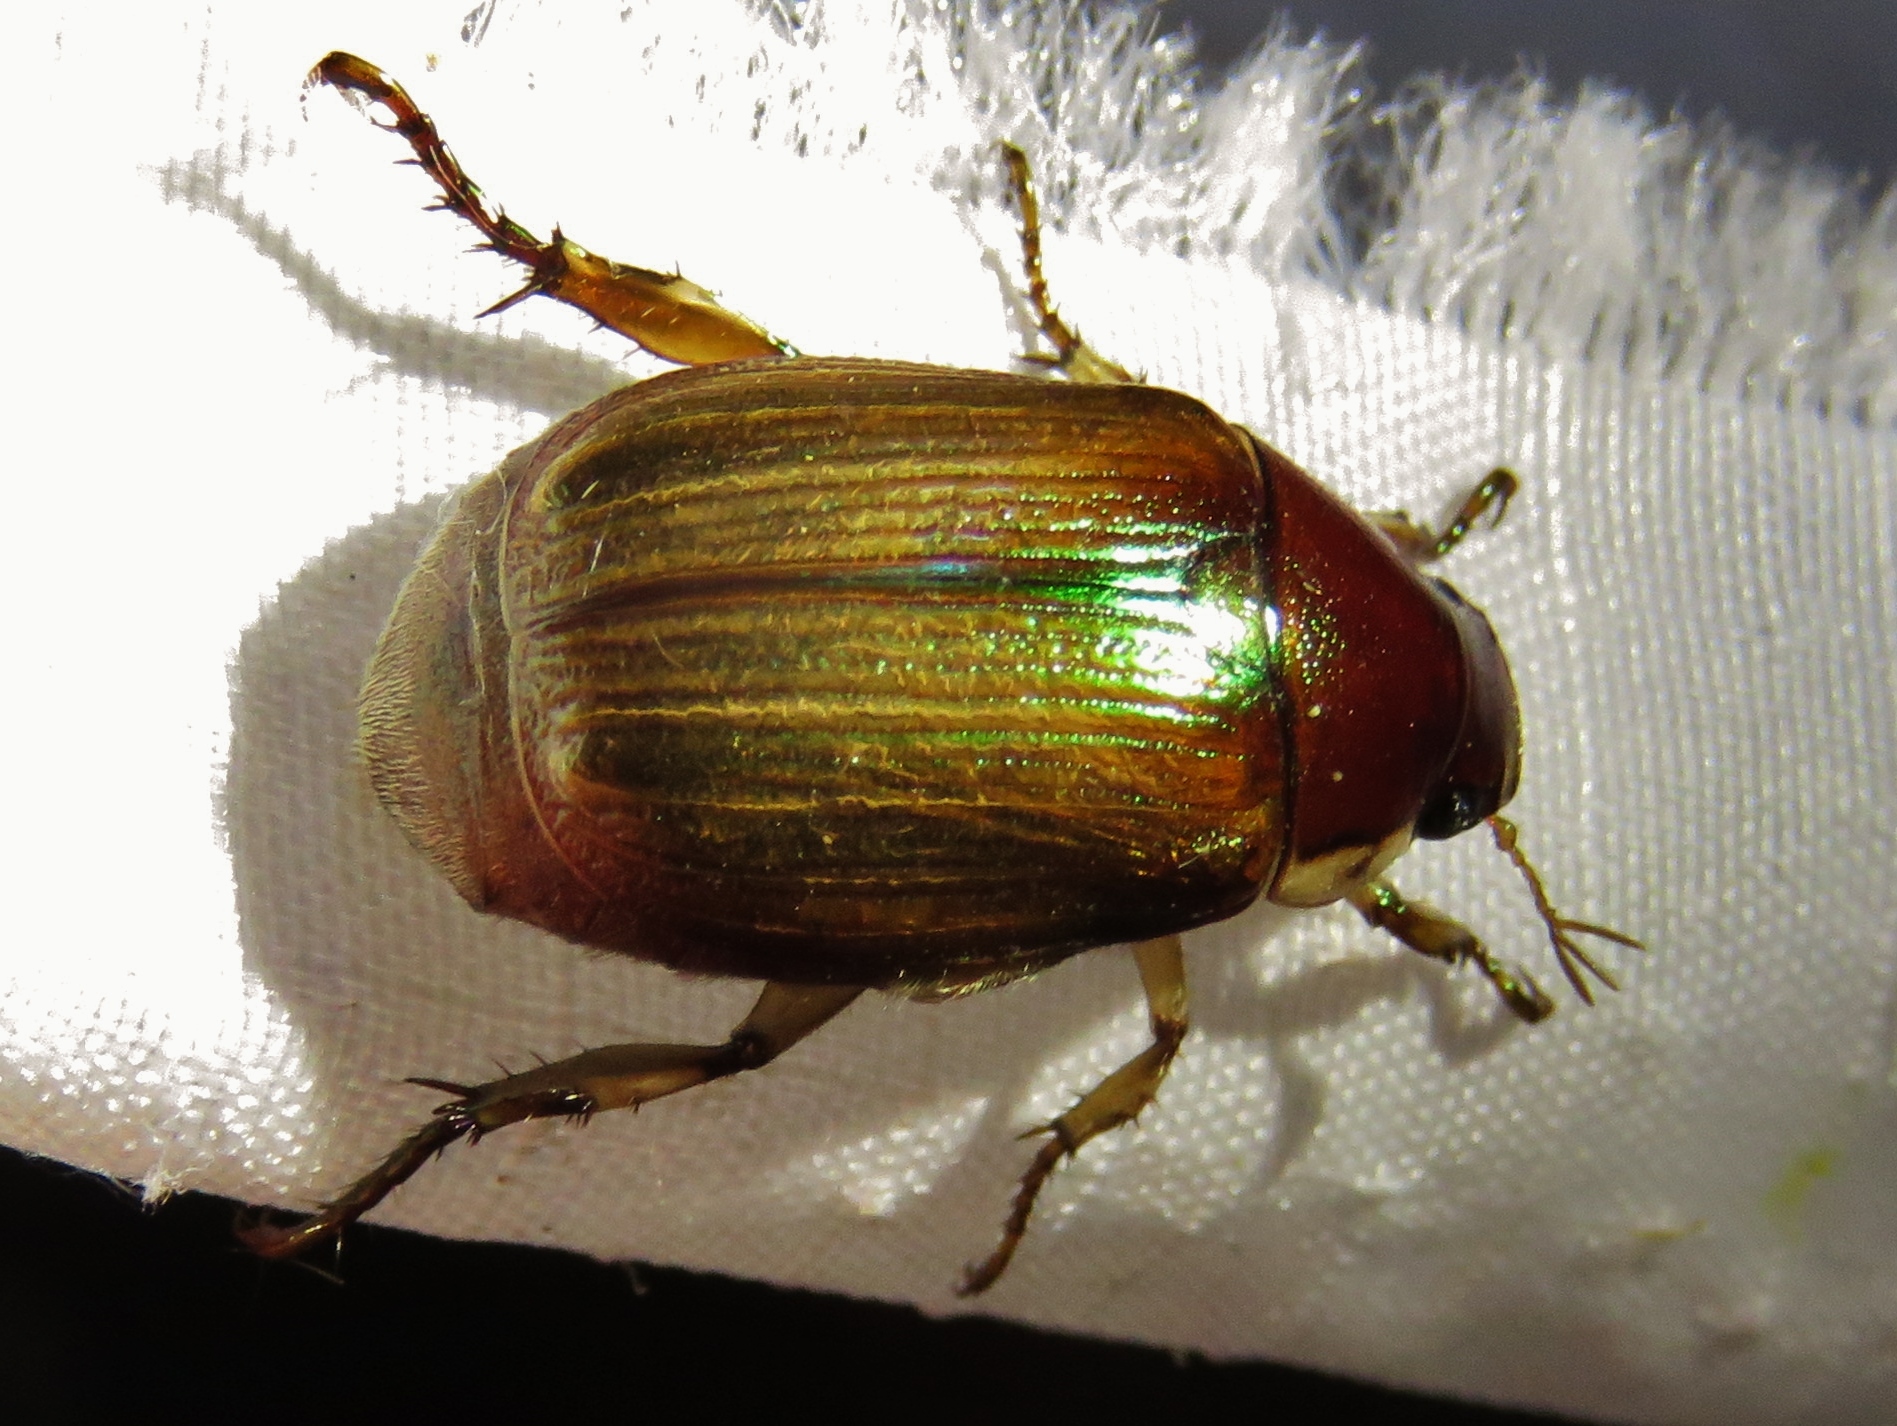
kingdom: Animalia
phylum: Arthropoda
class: Insecta
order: Coleoptera
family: Scarabaeidae
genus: Callistethus
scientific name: Callistethus marginatus
